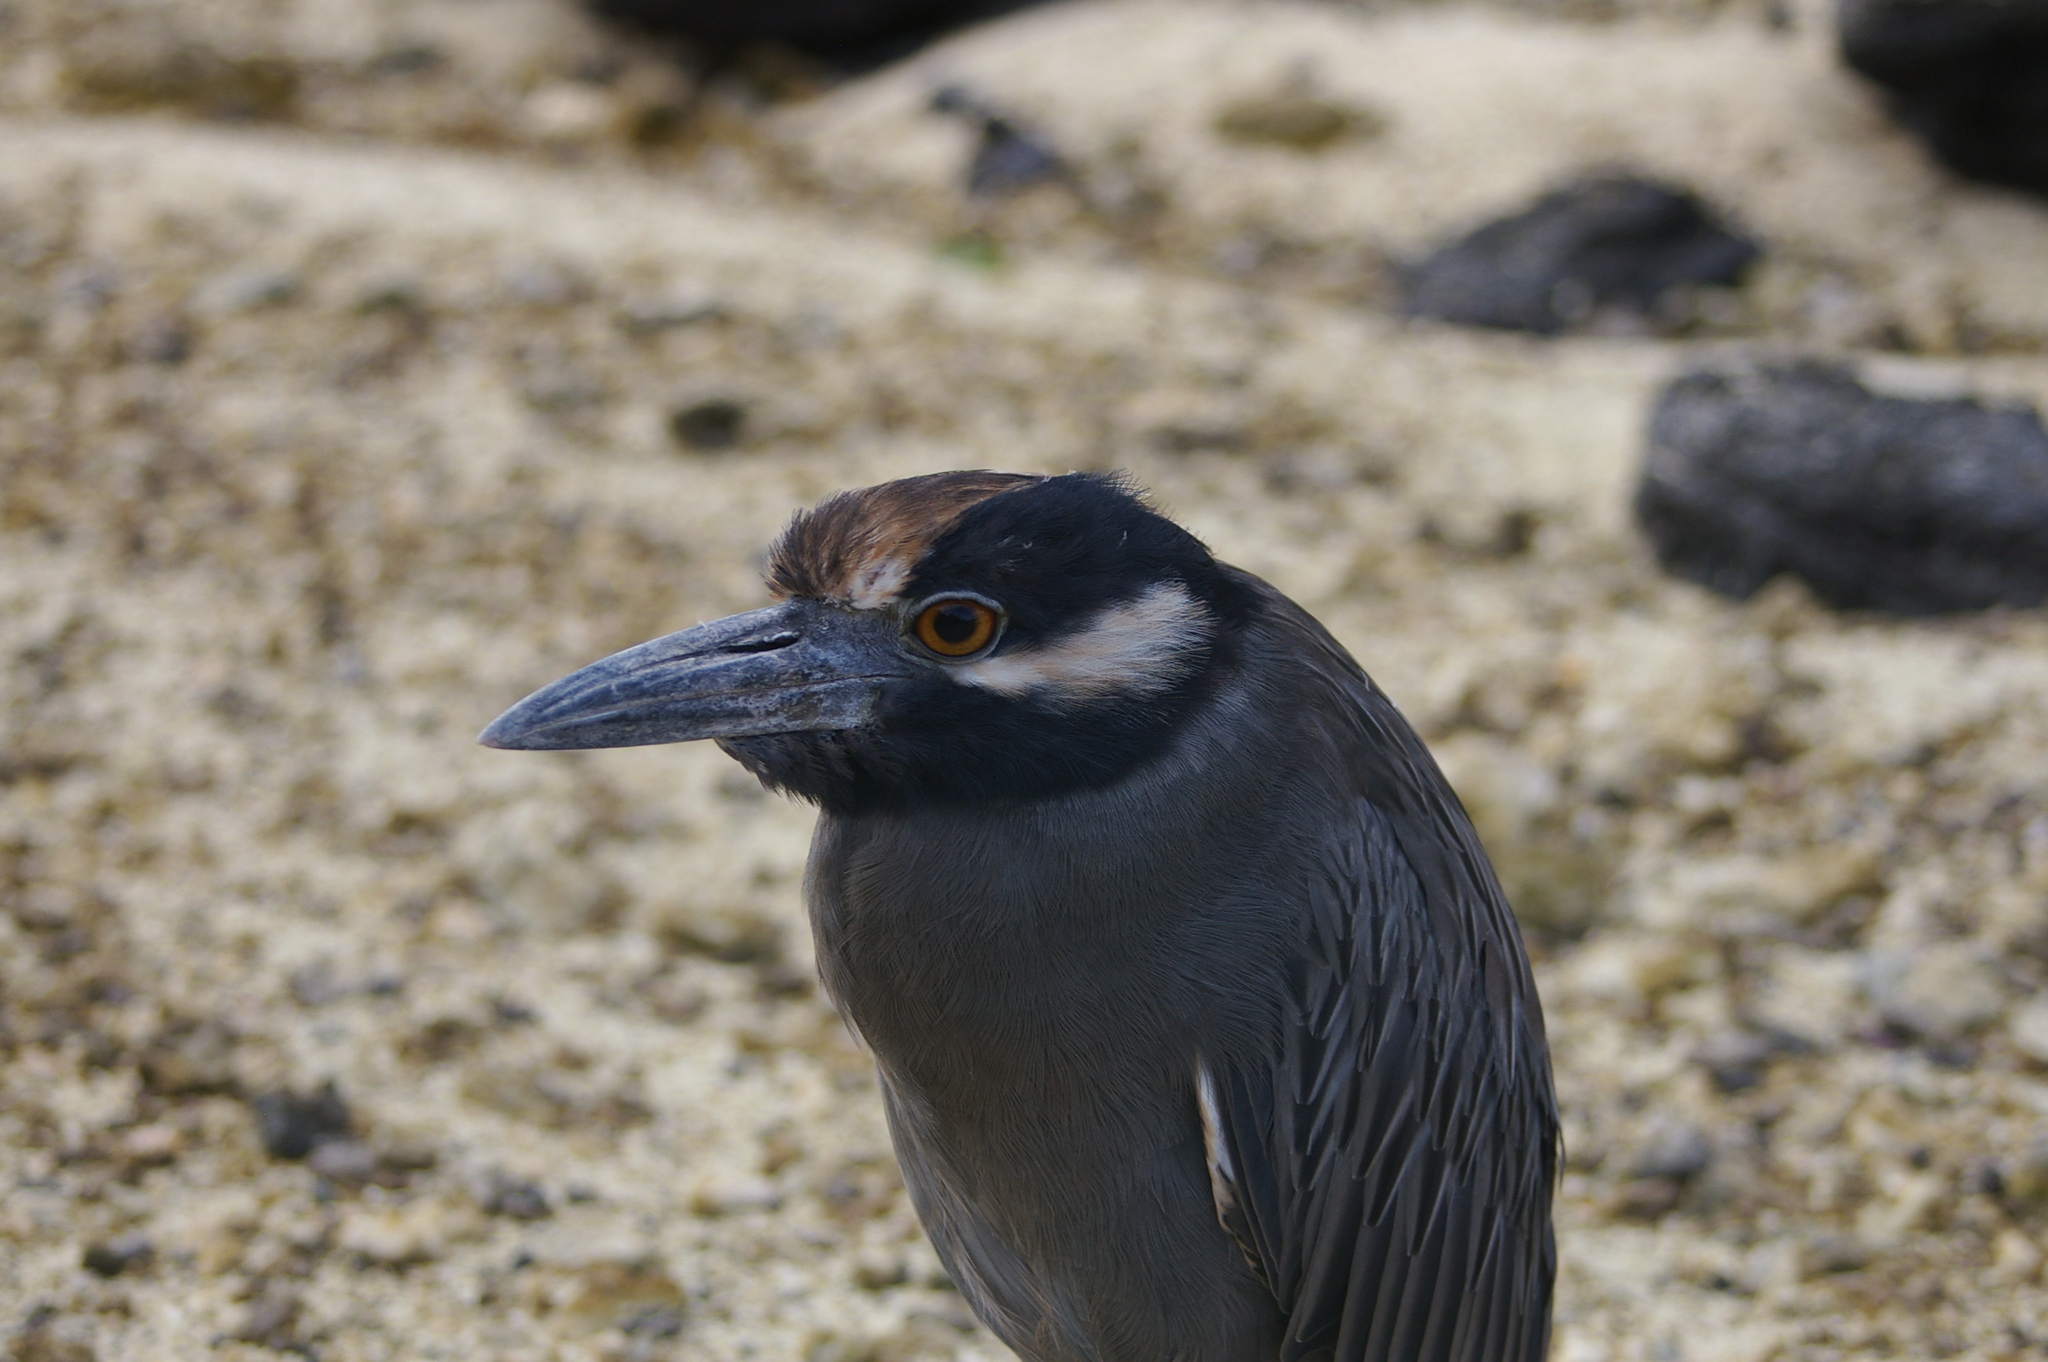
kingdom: Animalia
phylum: Chordata
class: Aves
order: Pelecaniformes
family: Ardeidae
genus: Nyctanassa
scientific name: Nyctanassa violacea
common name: Yellow-crowned night heron
